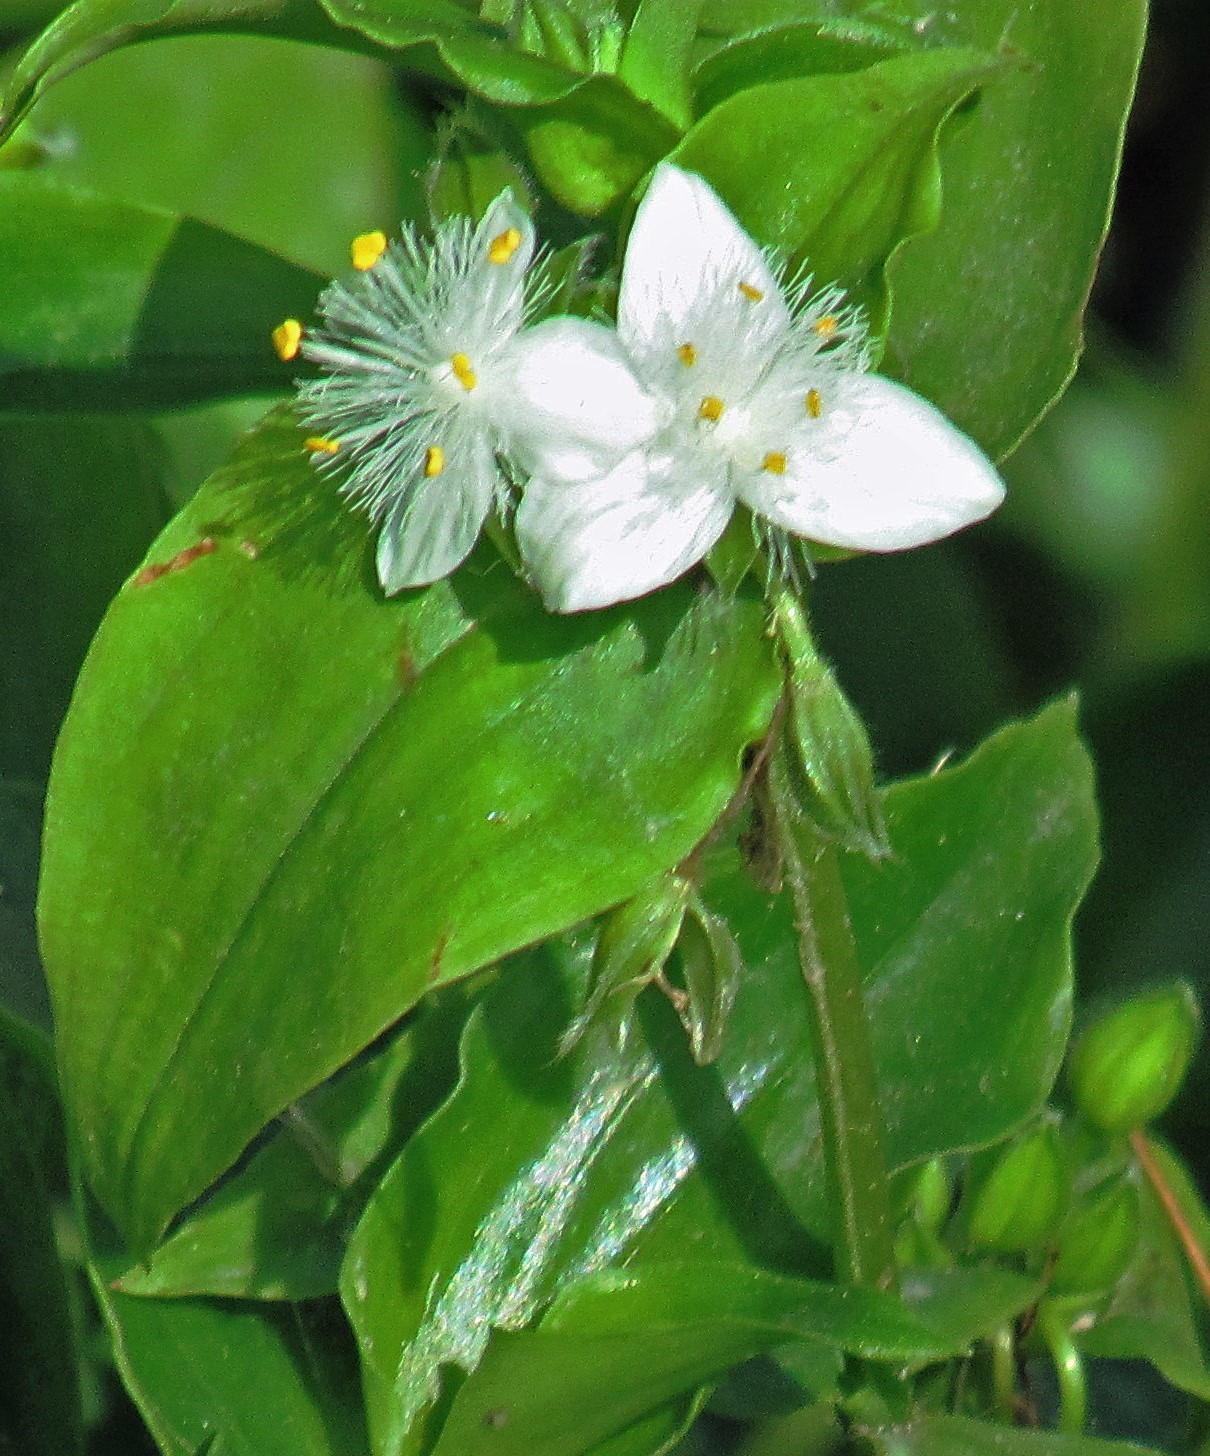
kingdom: Plantae
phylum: Tracheophyta
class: Liliopsida
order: Commelinales
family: Commelinaceae
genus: Tradescantia
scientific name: Tradescantia fluminensis
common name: Wandering-jew
